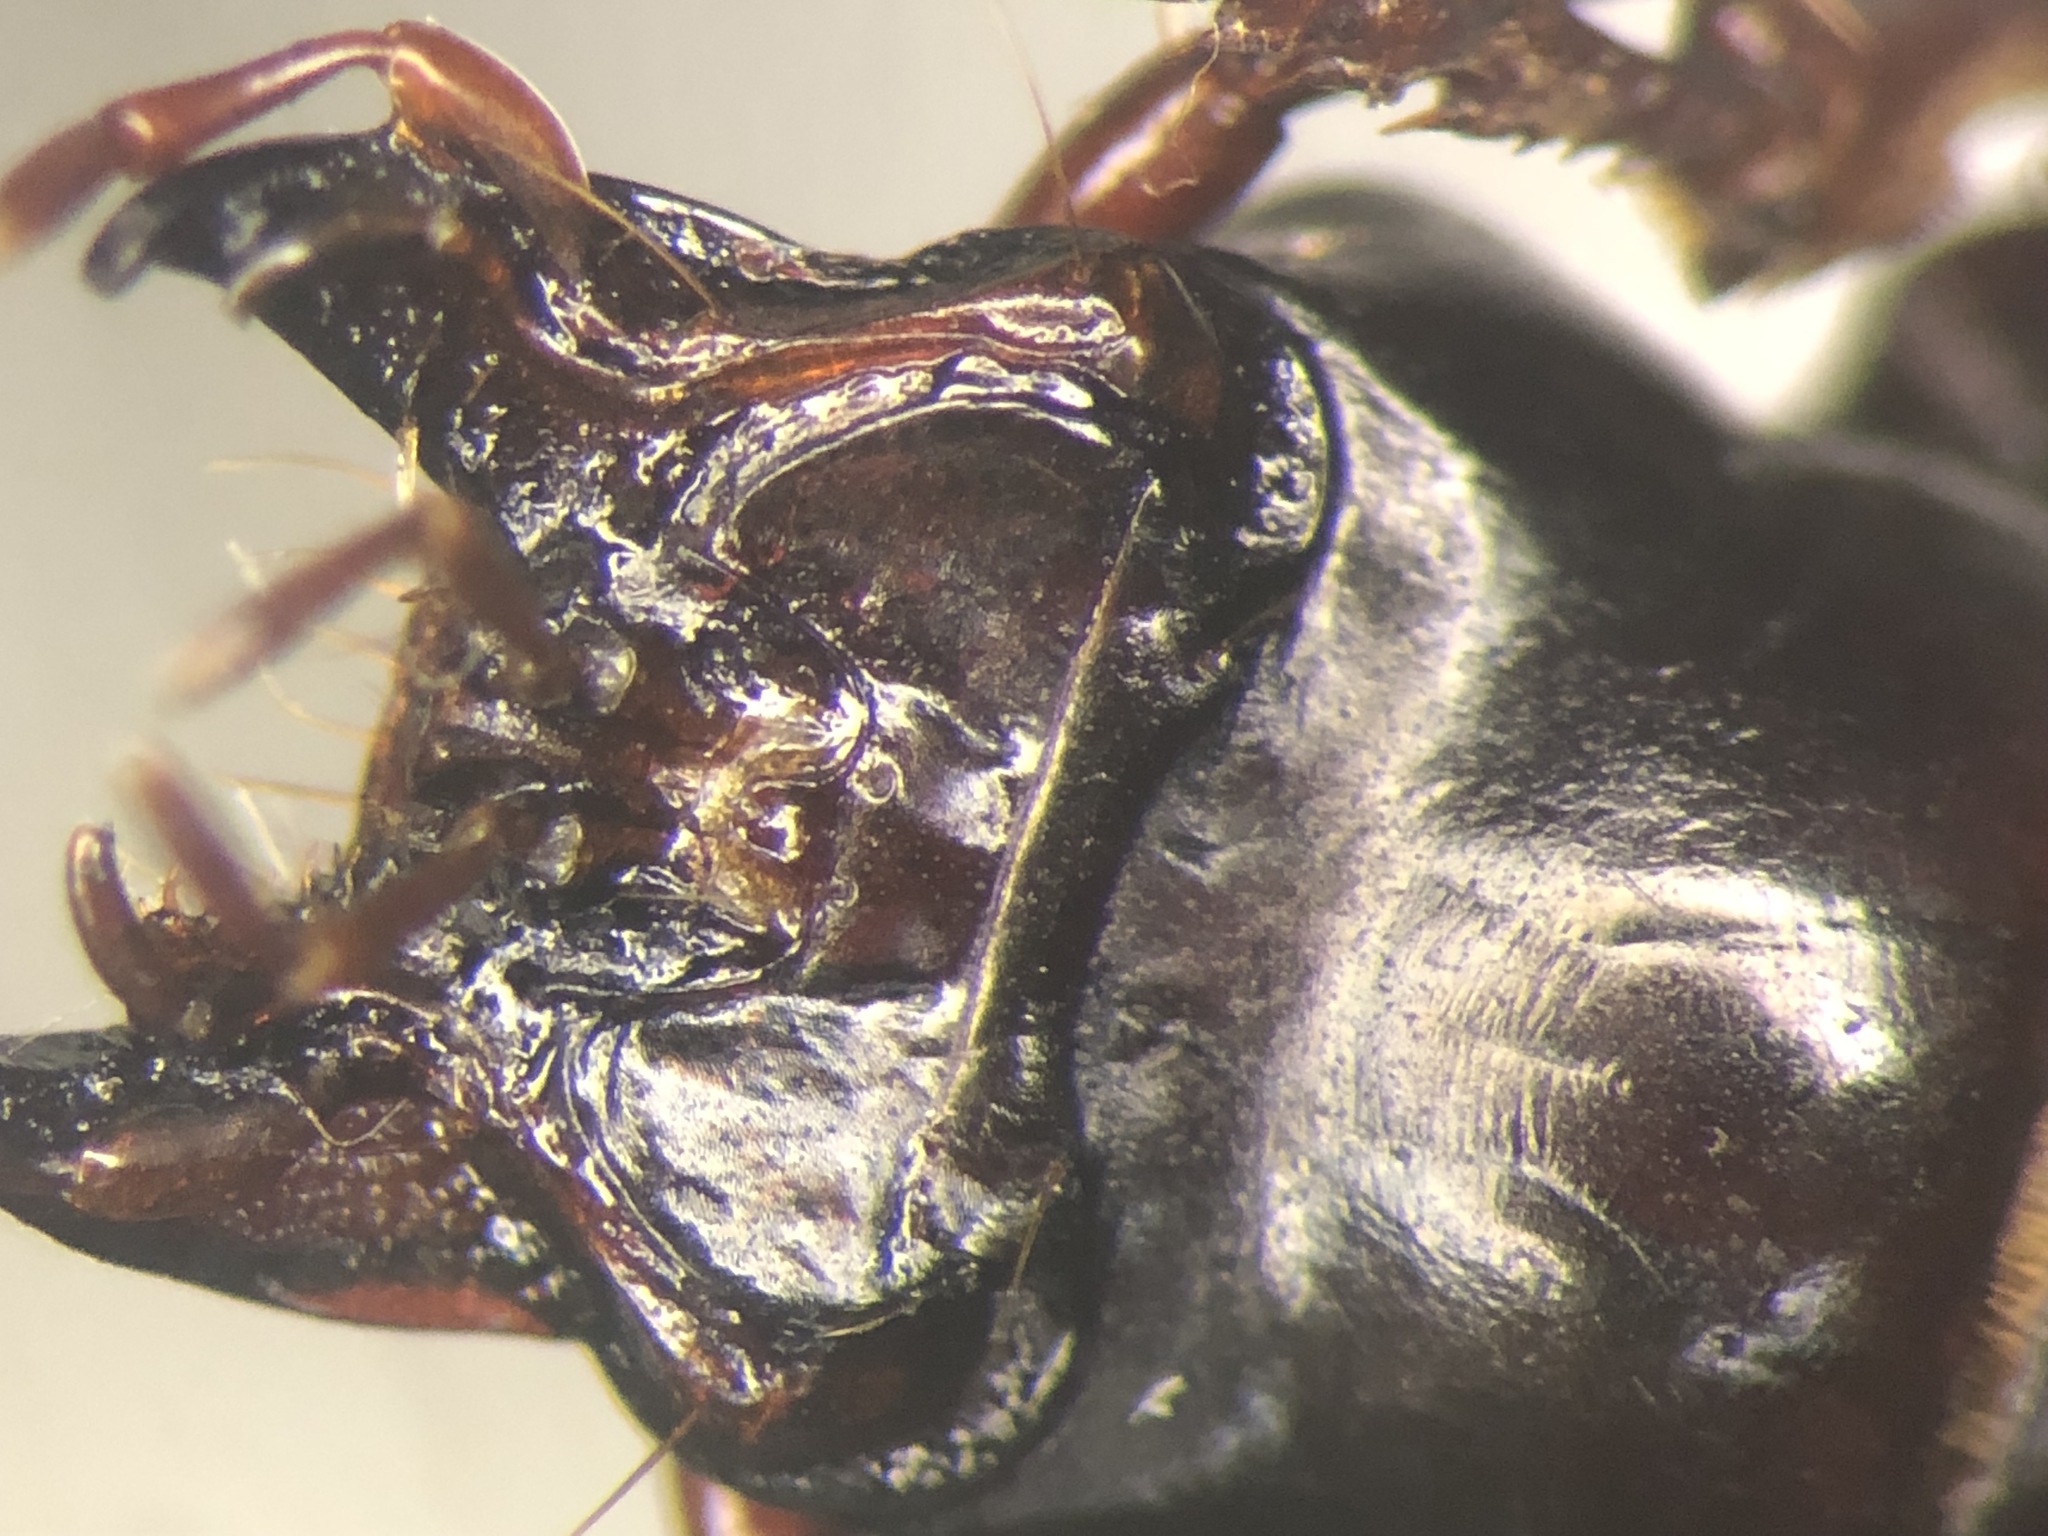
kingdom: Animalia
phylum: Arthropoda
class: Insecta
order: Coleoptera
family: Carabidae
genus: Pterostichus
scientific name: Pterostichus tristis
